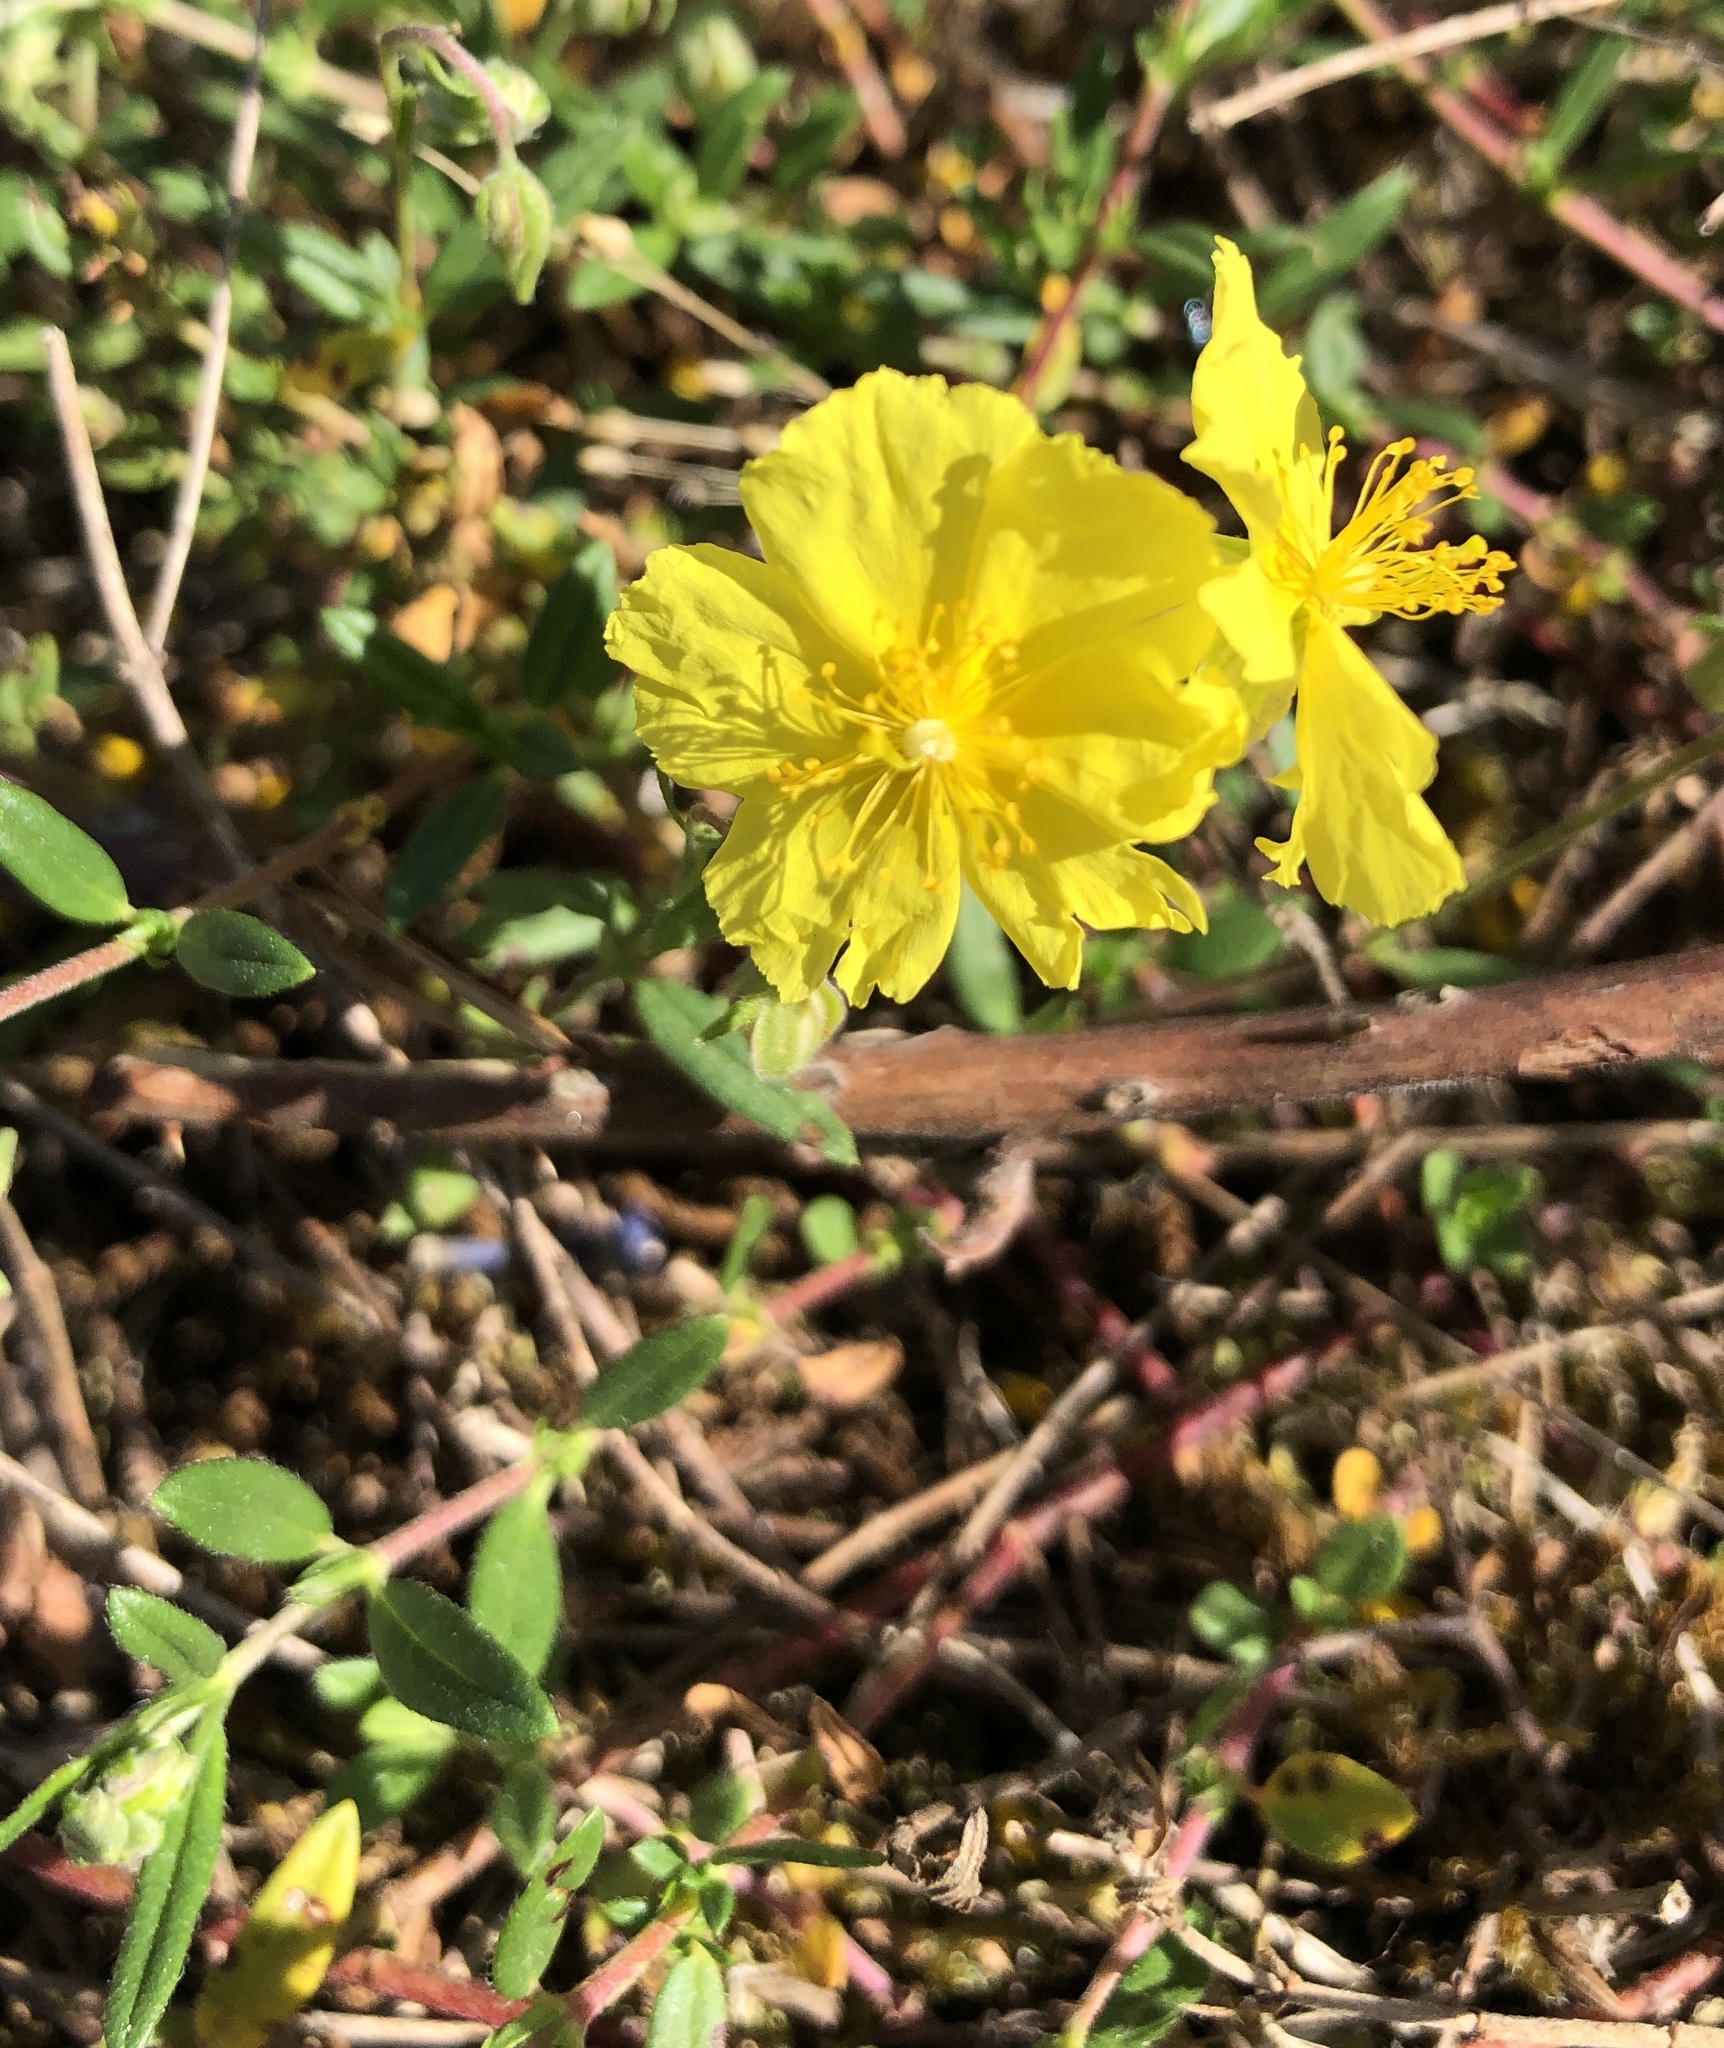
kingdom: Plantae
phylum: Tracheophyta
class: Magnoliopsida
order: Malvales
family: Cistaceae
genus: Helianthemum
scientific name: Helianthemum nummularium
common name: Common rock-rose
